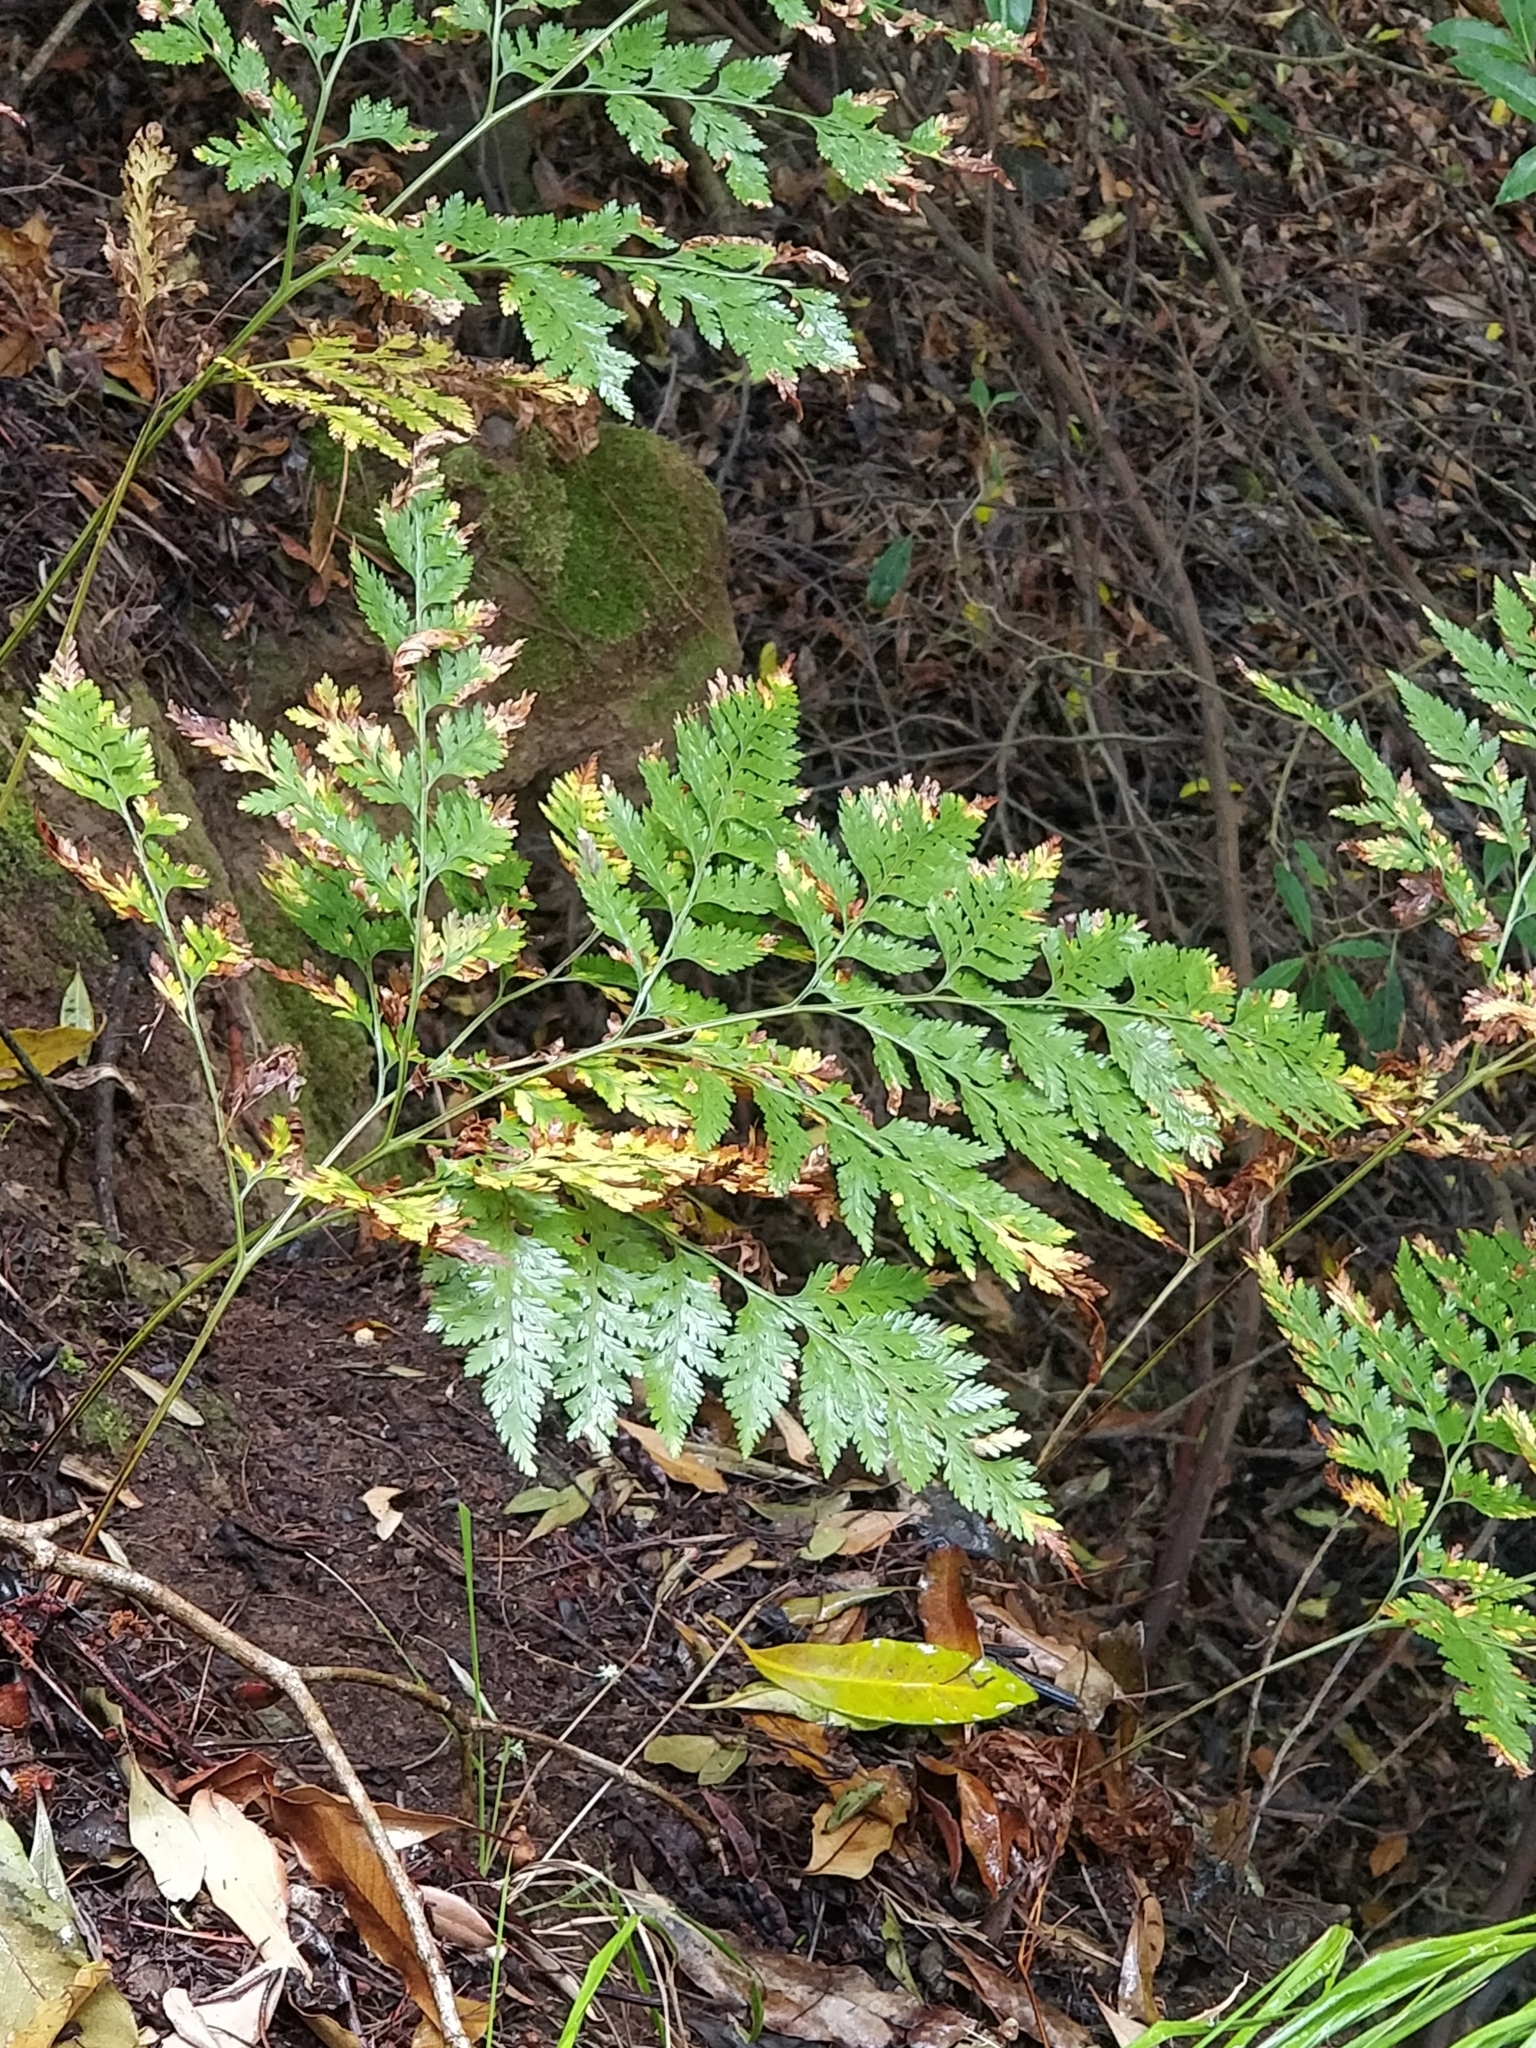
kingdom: Plantae
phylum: Tracheophyta
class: Polypodiopsida
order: Polypodiales
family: Davalliaceae
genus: Davallia
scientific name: Davallia canariensis
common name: Hare's-foot fern
